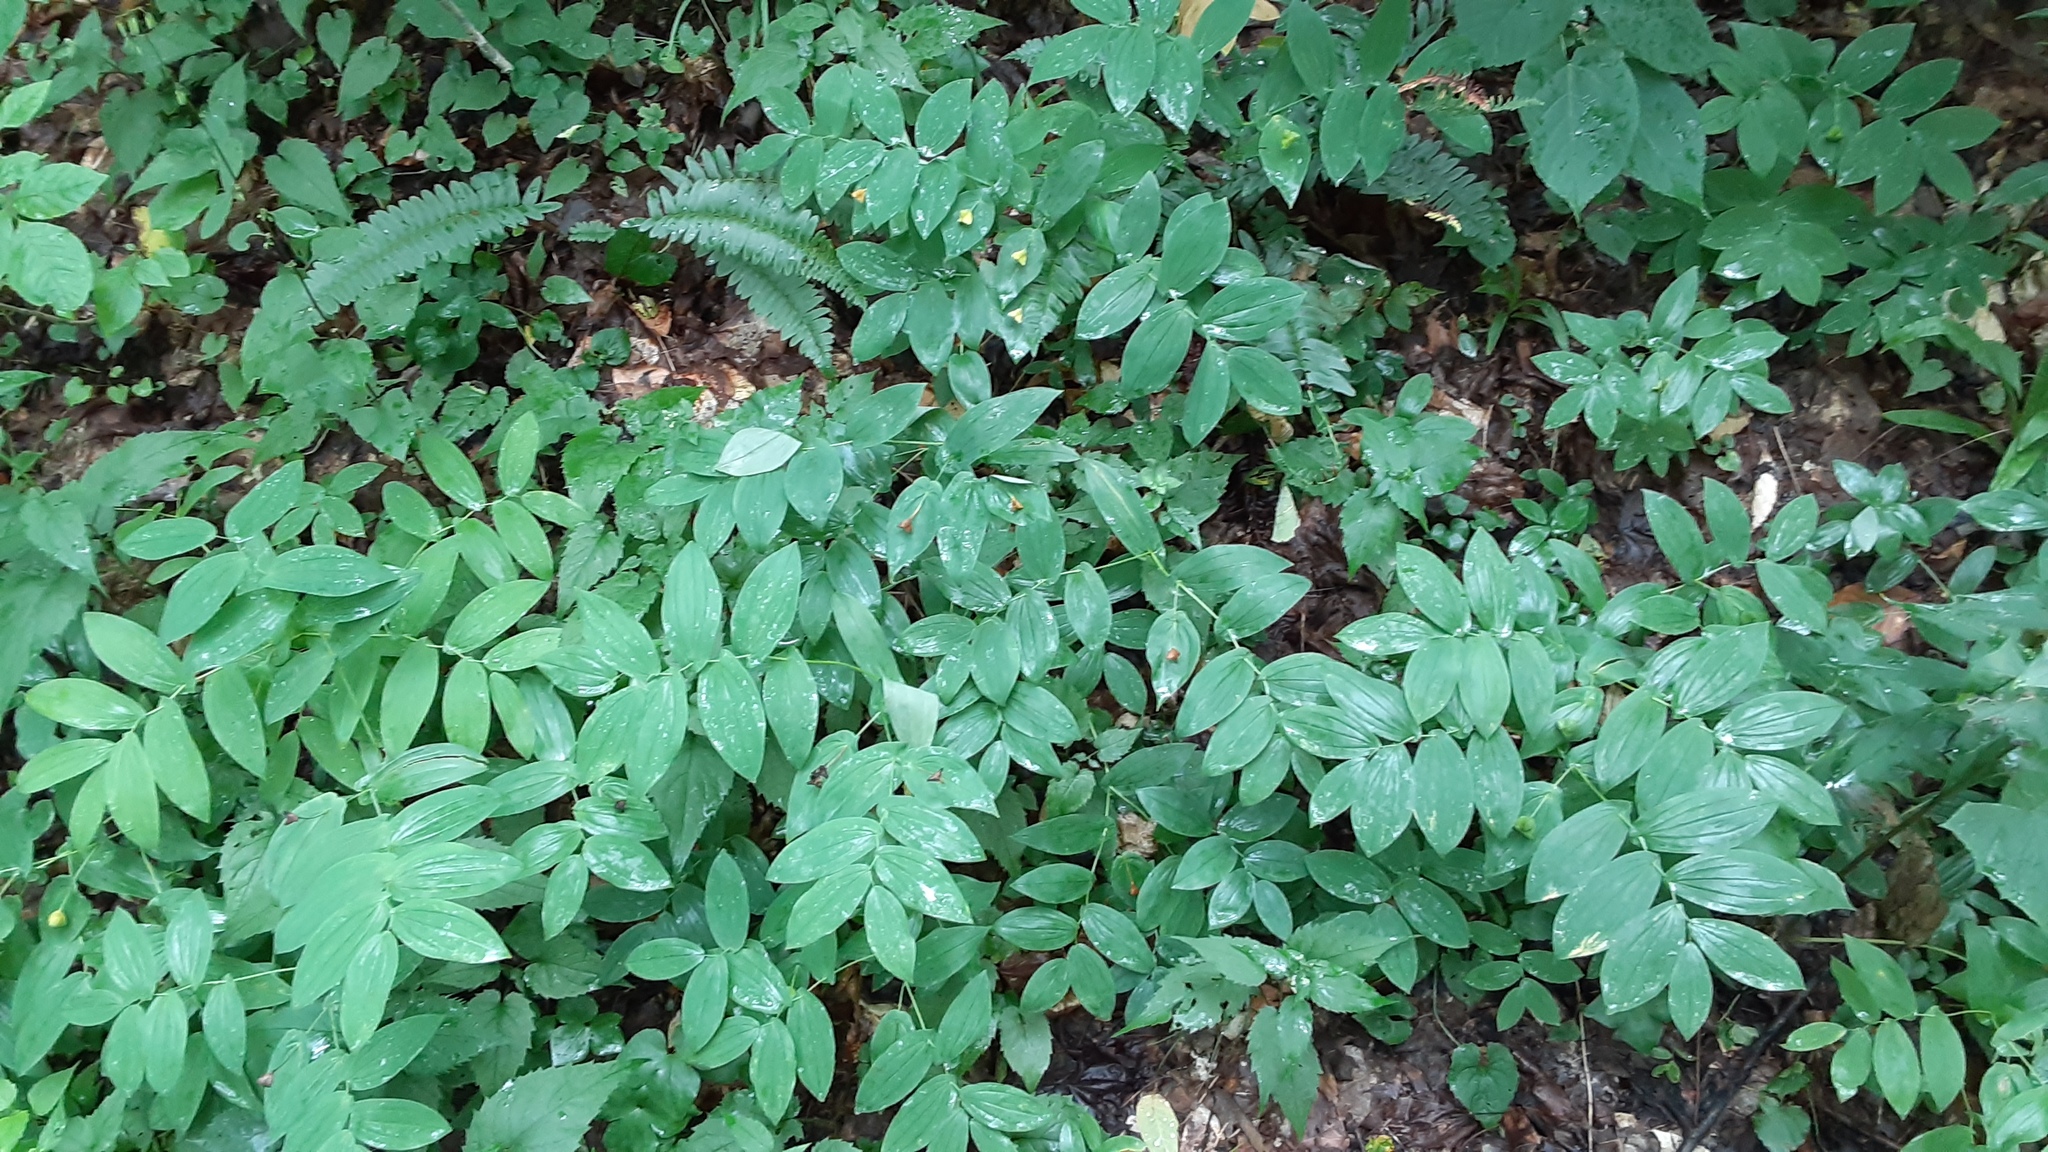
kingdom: Plantae
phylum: Tracheophyta
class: Liliopsida
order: Liliales
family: Colchicaceae
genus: Uvularia
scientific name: Uvularia grandiflora
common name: Bellwort
